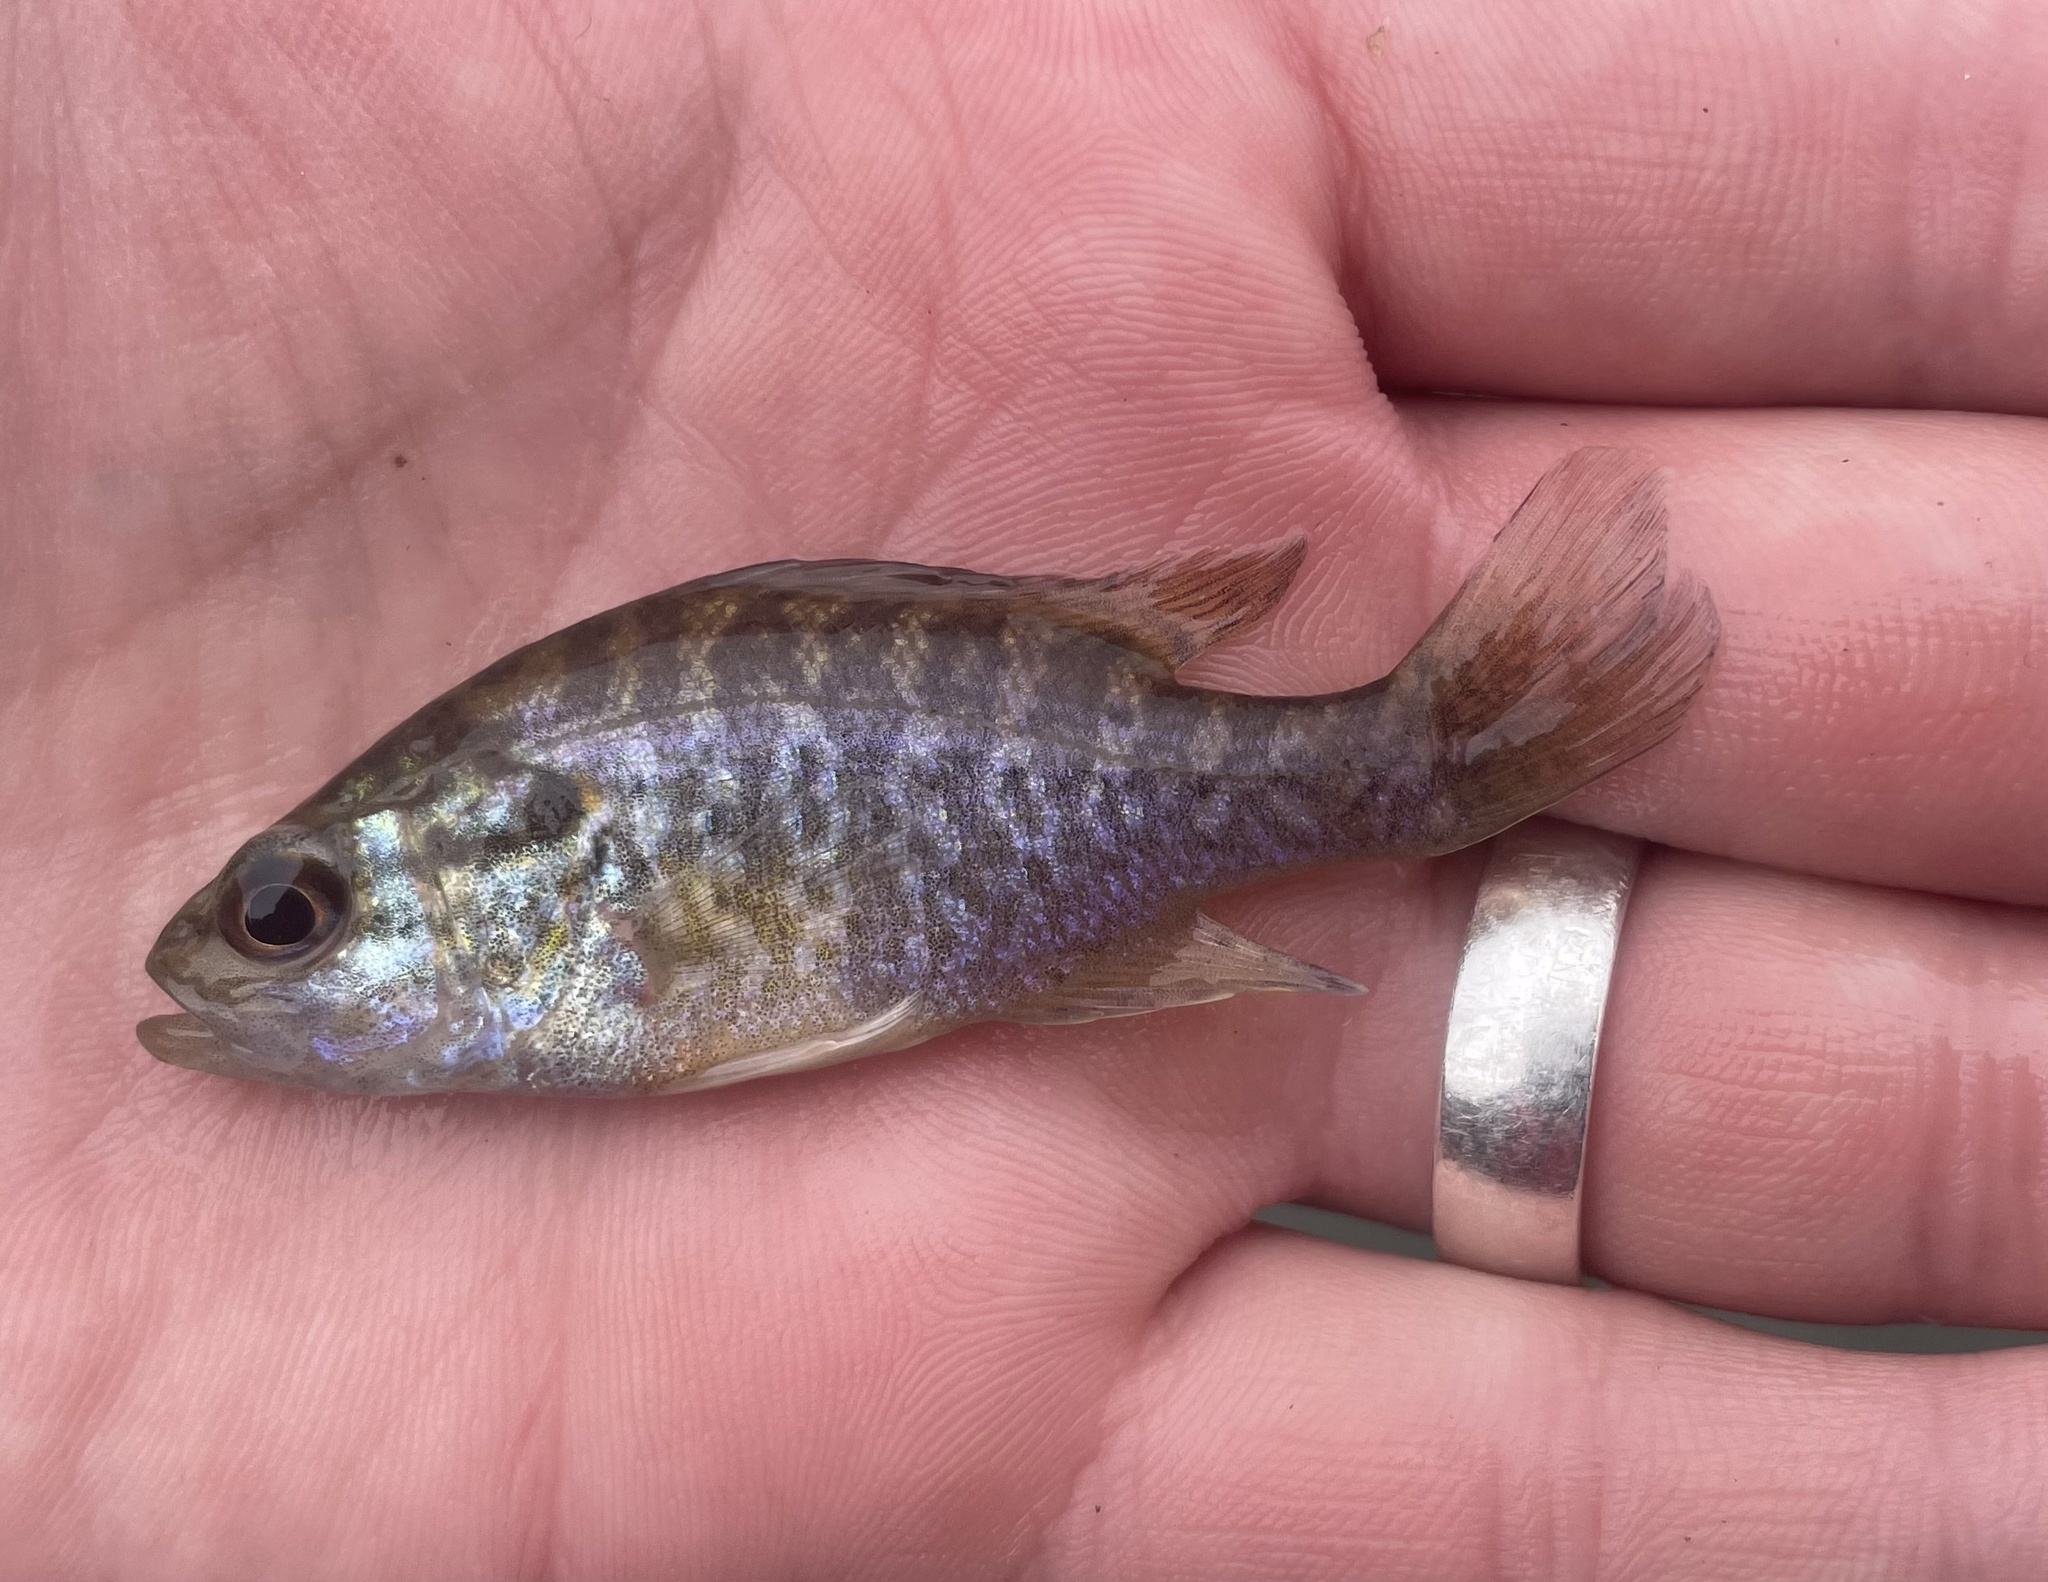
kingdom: Animalia
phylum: Chordata
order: Perciformes
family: Centrarchidae
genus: Lepomis
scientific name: Lepomis gulosus
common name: Warmouth
